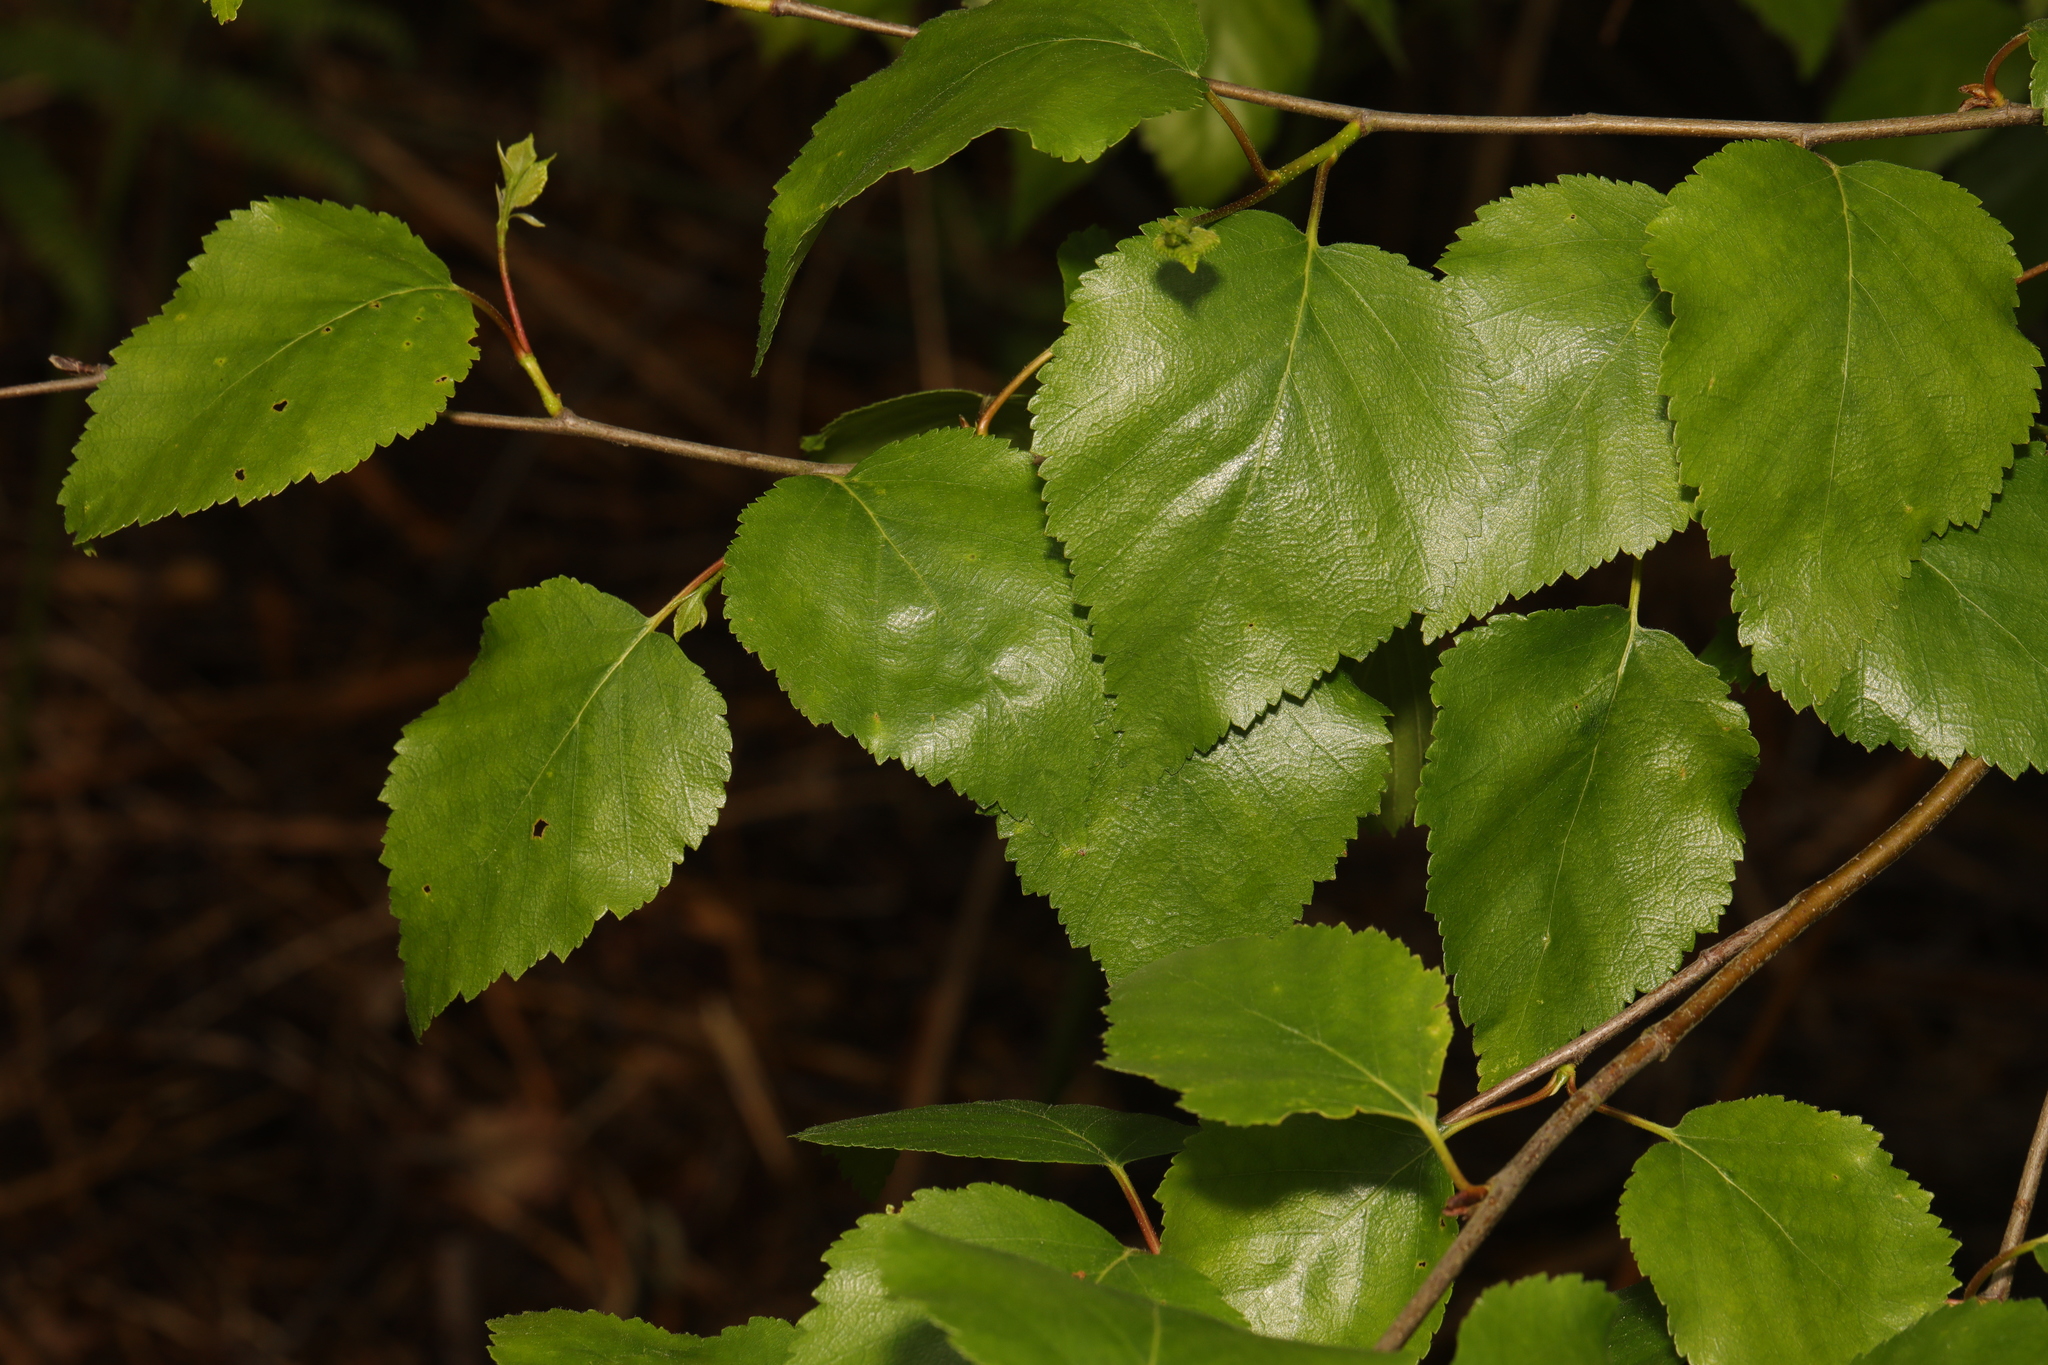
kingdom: Plantae
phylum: Tracheophyta
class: Magnoliopsida
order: Fagales
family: Betulaceae
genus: Betula
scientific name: Betula pendula
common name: Silver birch
